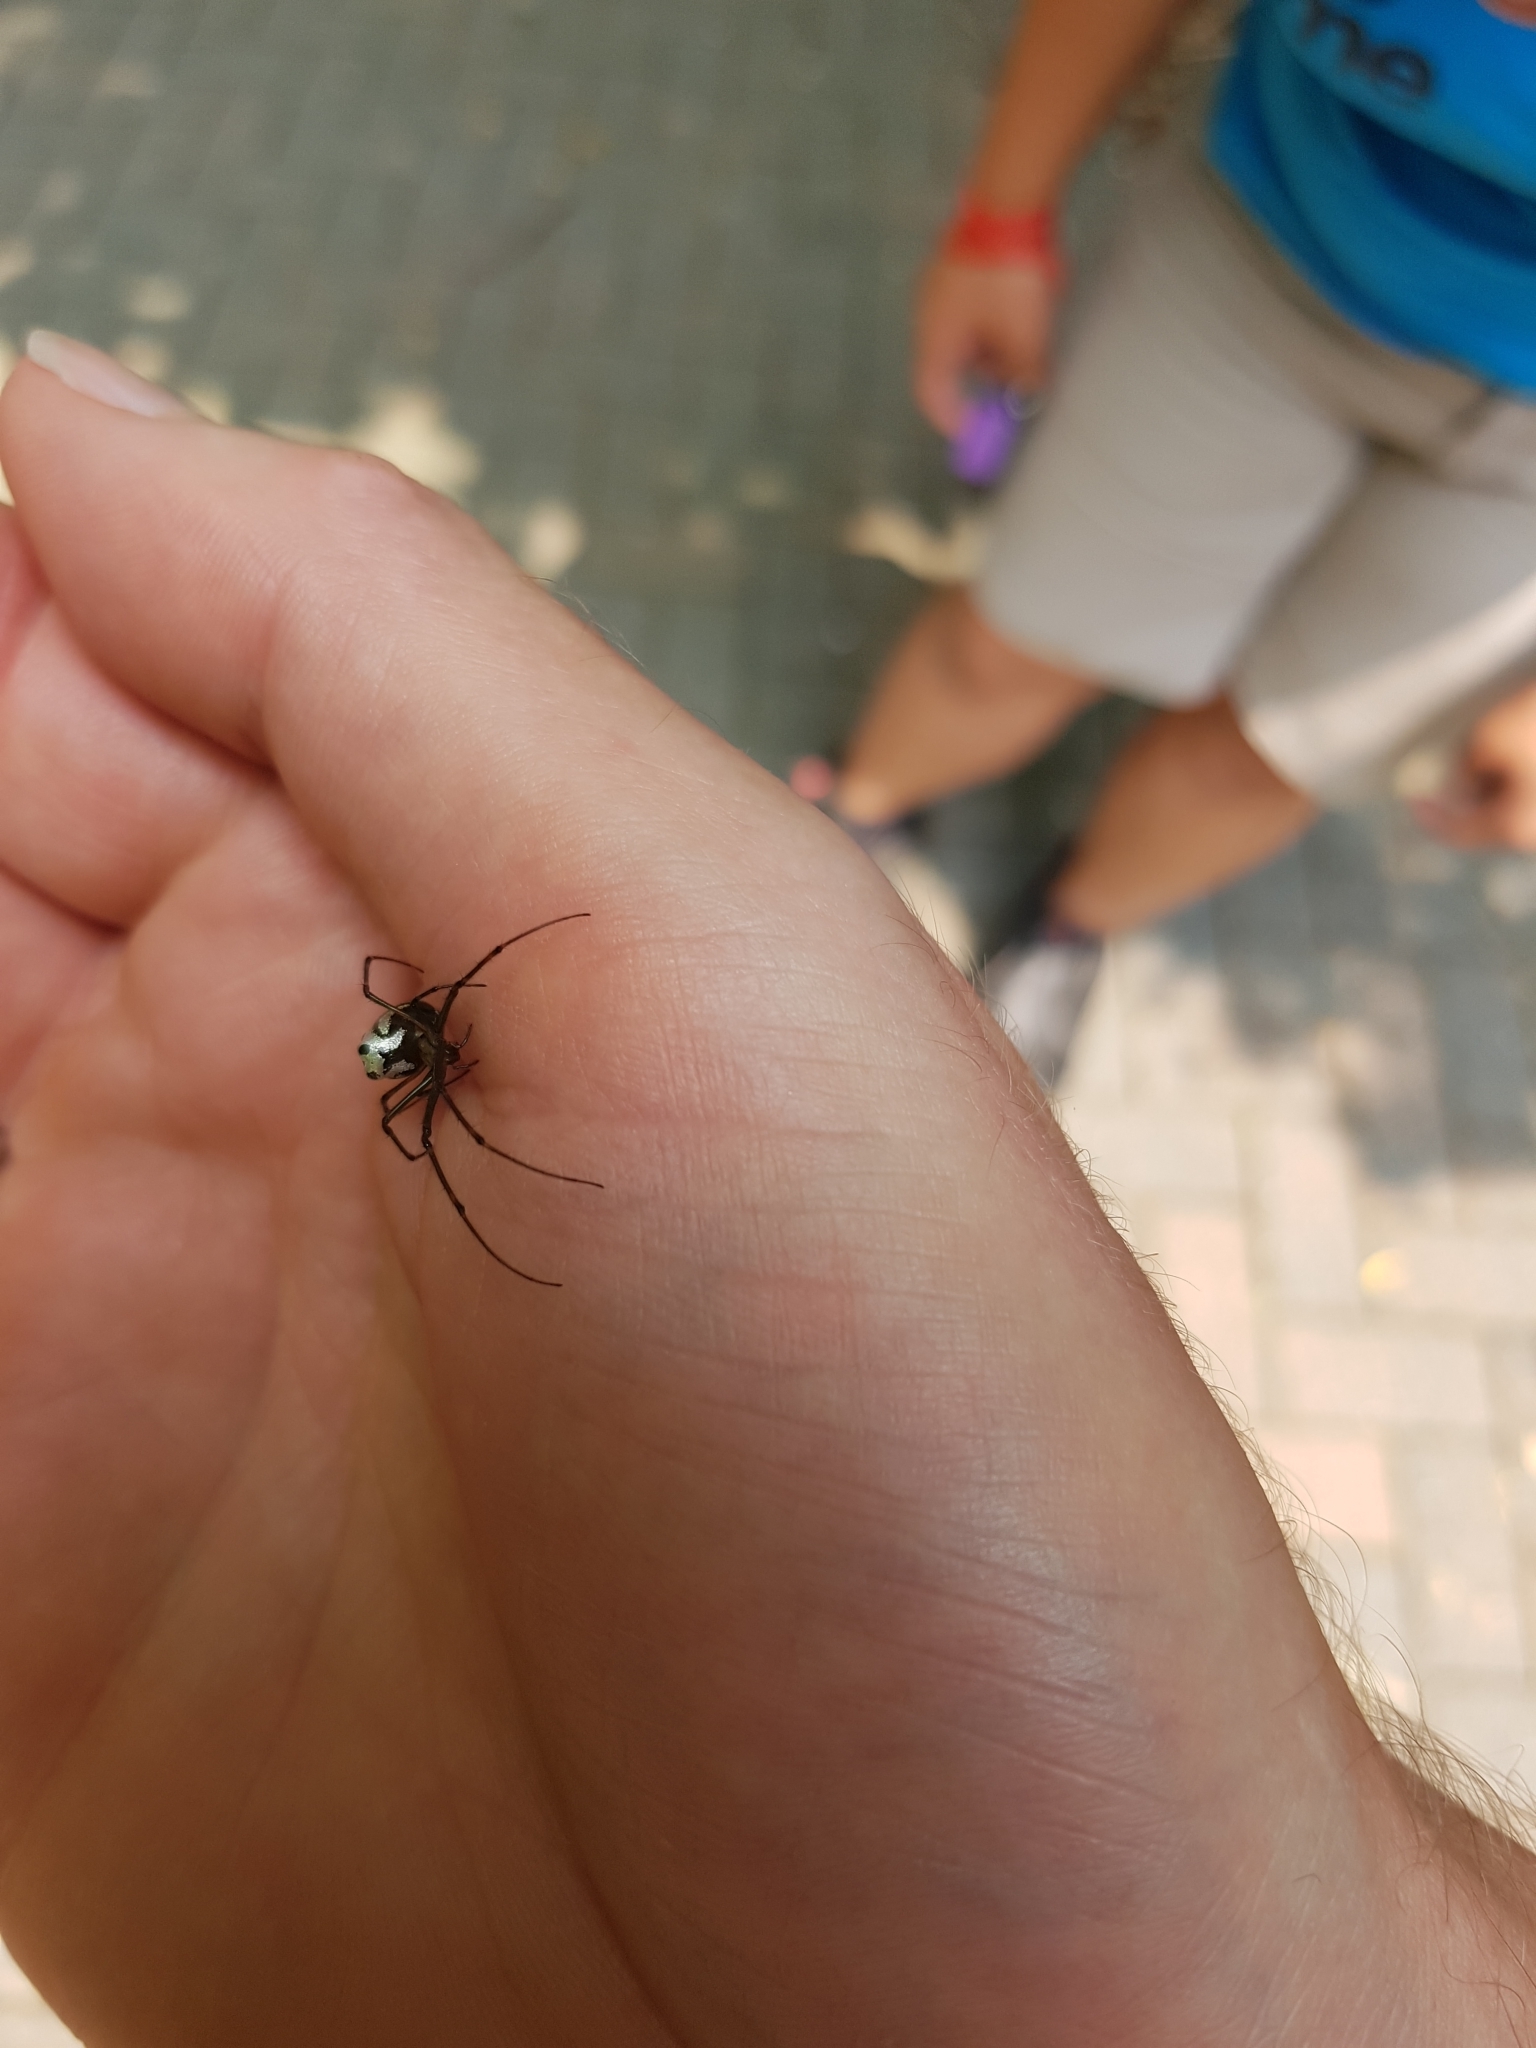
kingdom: Animalia
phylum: Arthropoda
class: Arachnida
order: Araneae
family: Tetragnathidae
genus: Leucauge
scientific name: Leucauge dromedaria
